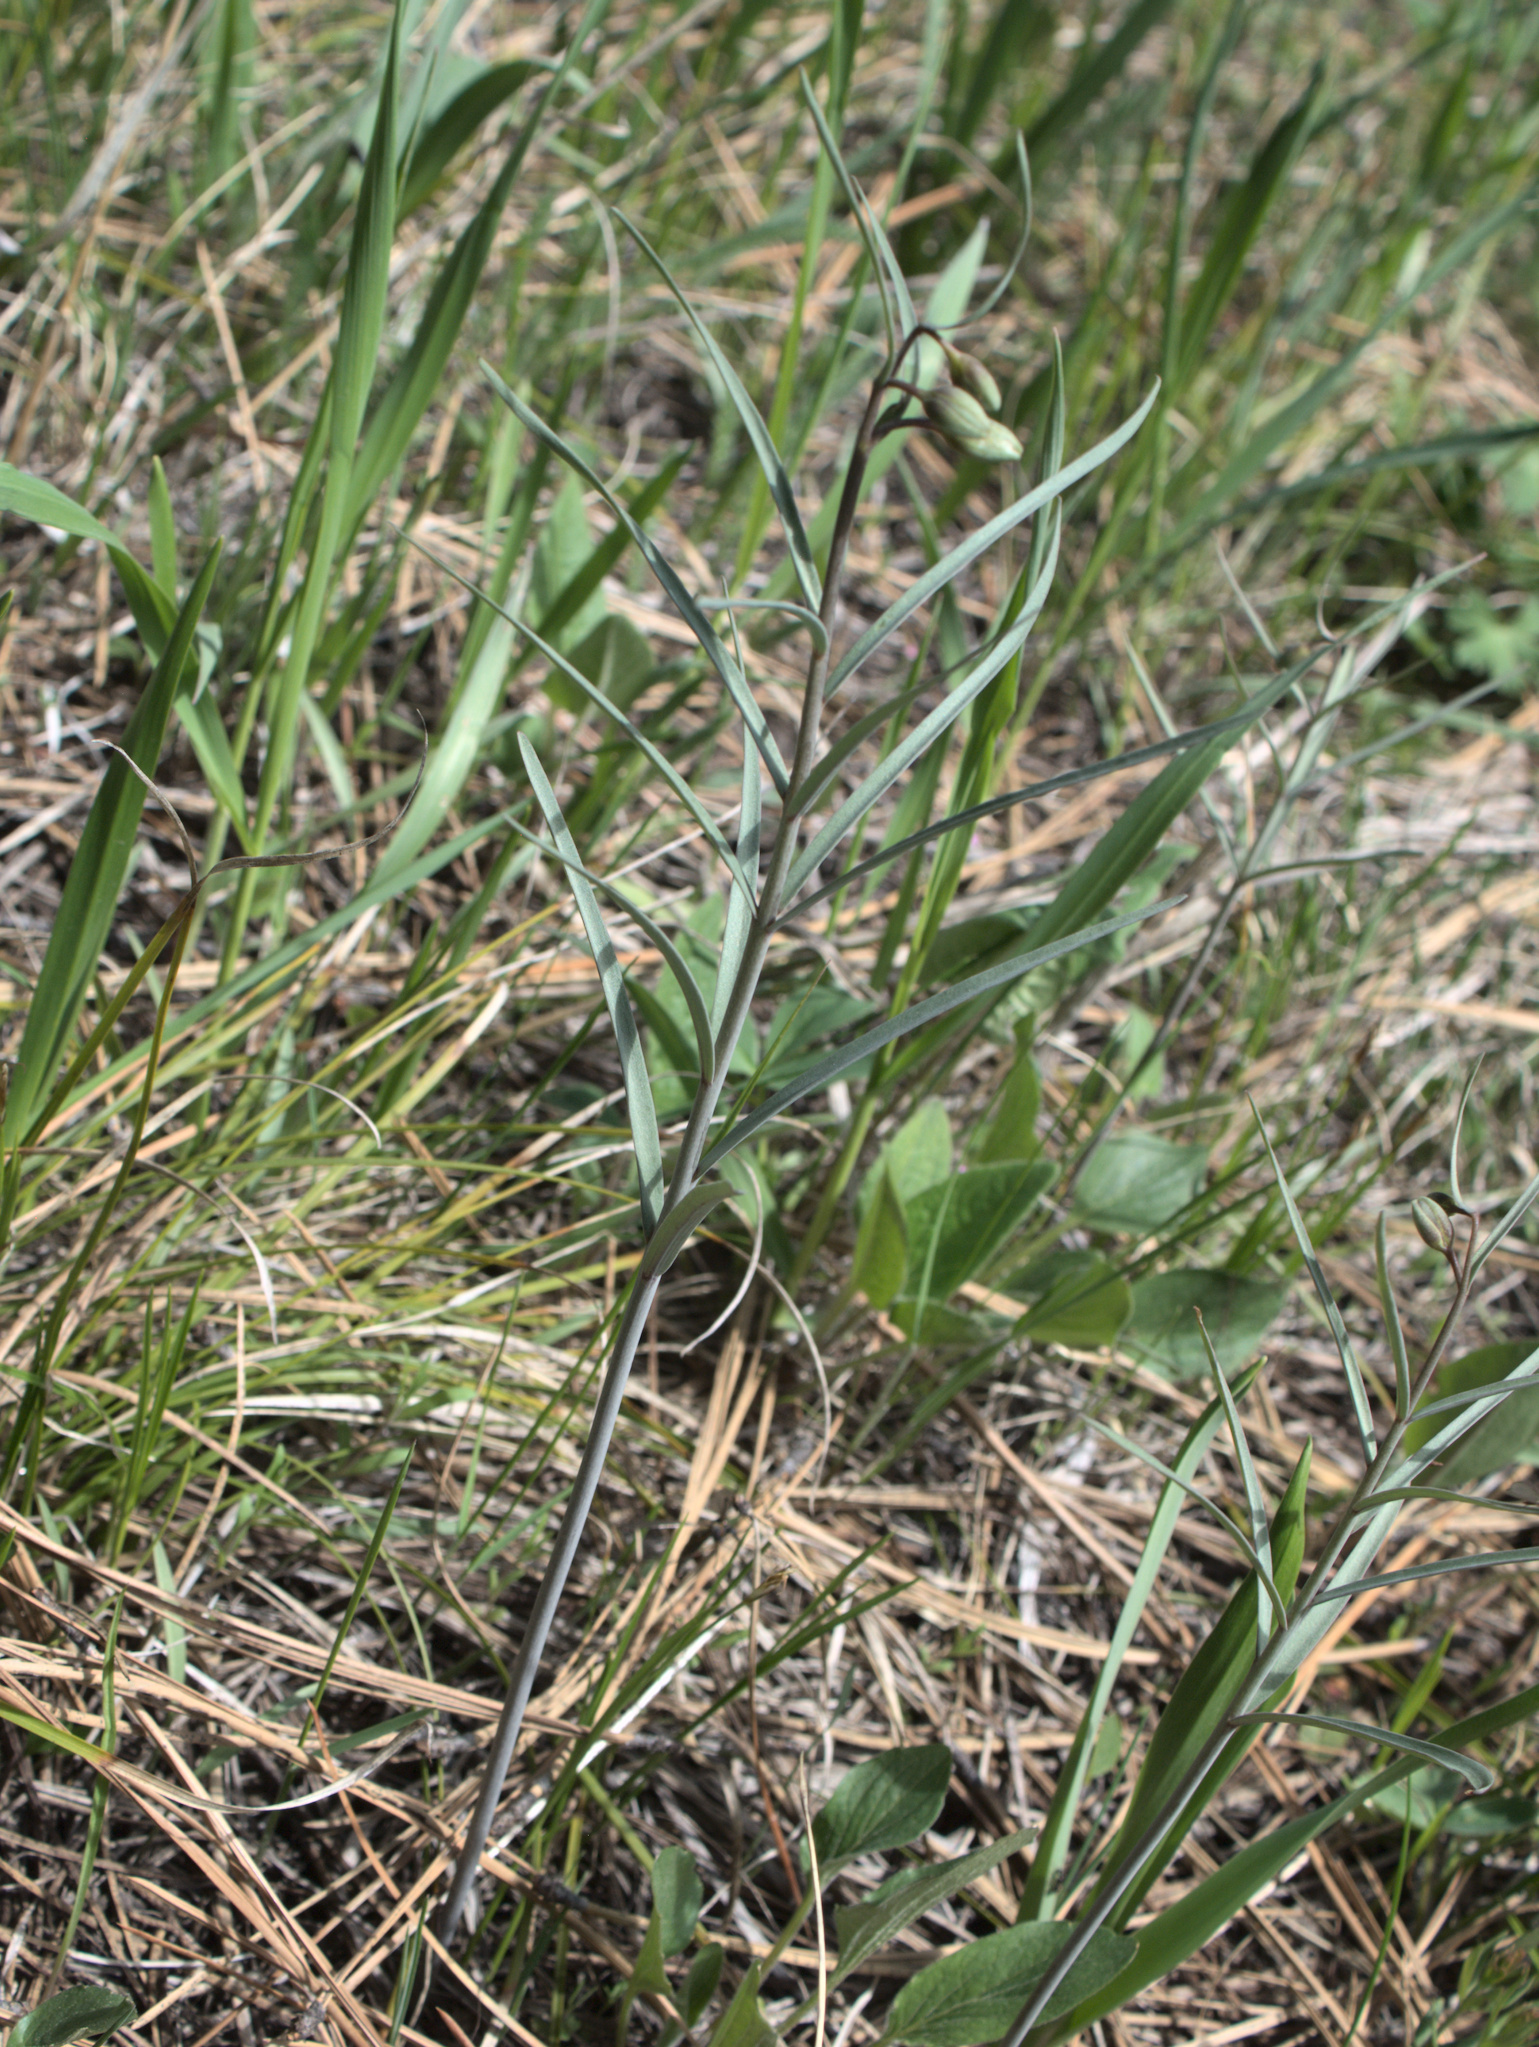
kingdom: Plantae
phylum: Tracheophyta
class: Liliopsida
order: Liliales
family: Liliaceae
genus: Fritillaria
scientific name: Fritillaria atropurpurea
